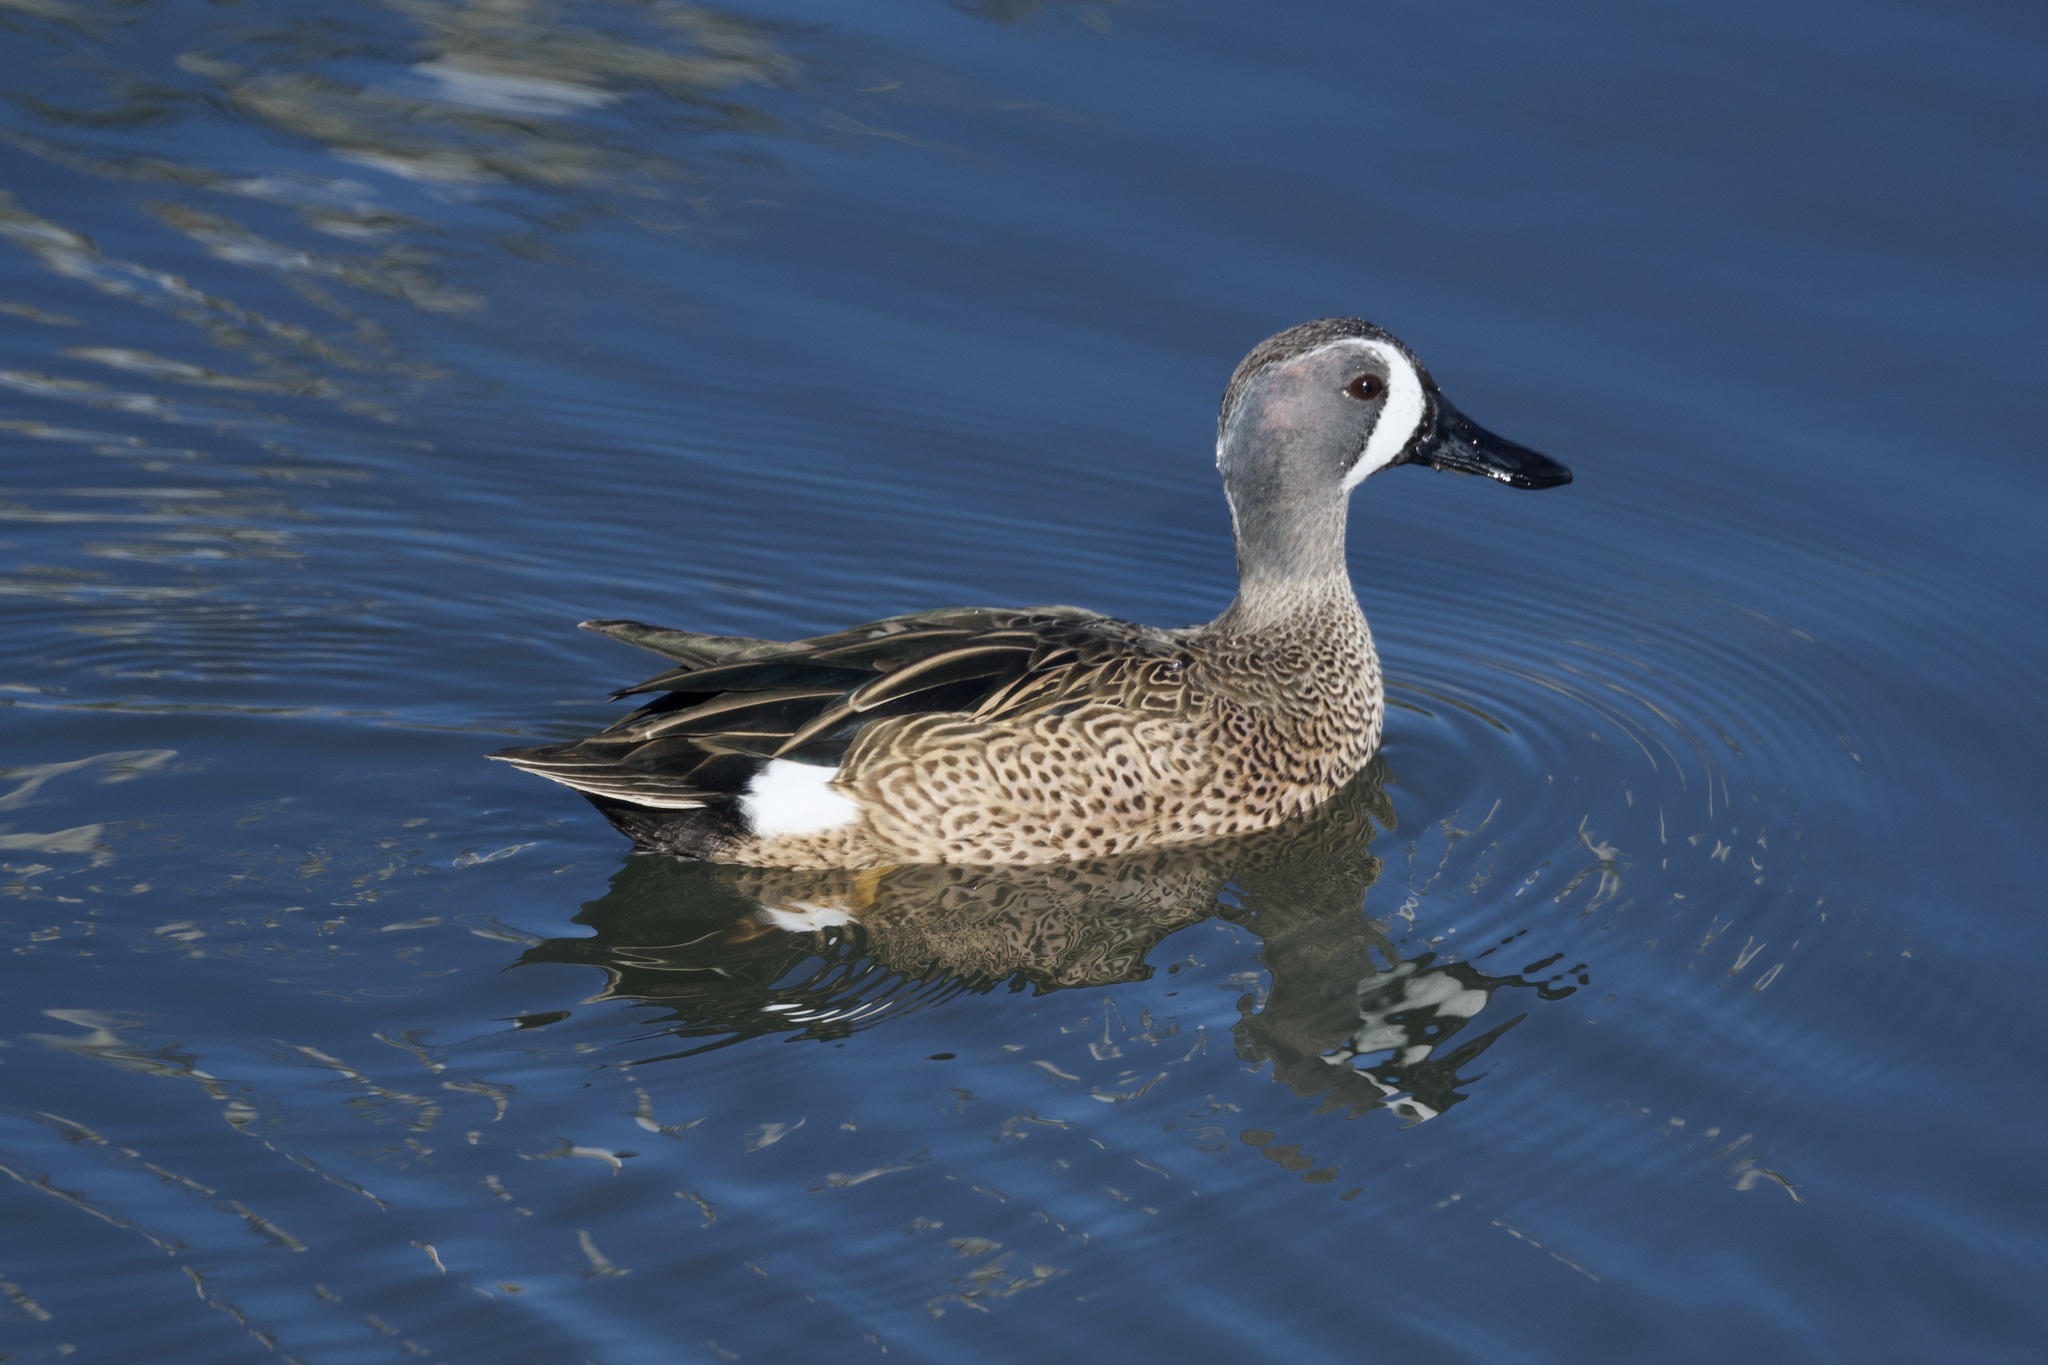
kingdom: Animalia
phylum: Chordata
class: Aves
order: Anseriformes
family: Anatidae
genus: Spatula
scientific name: Spatula discors
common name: Blue-winged teal
